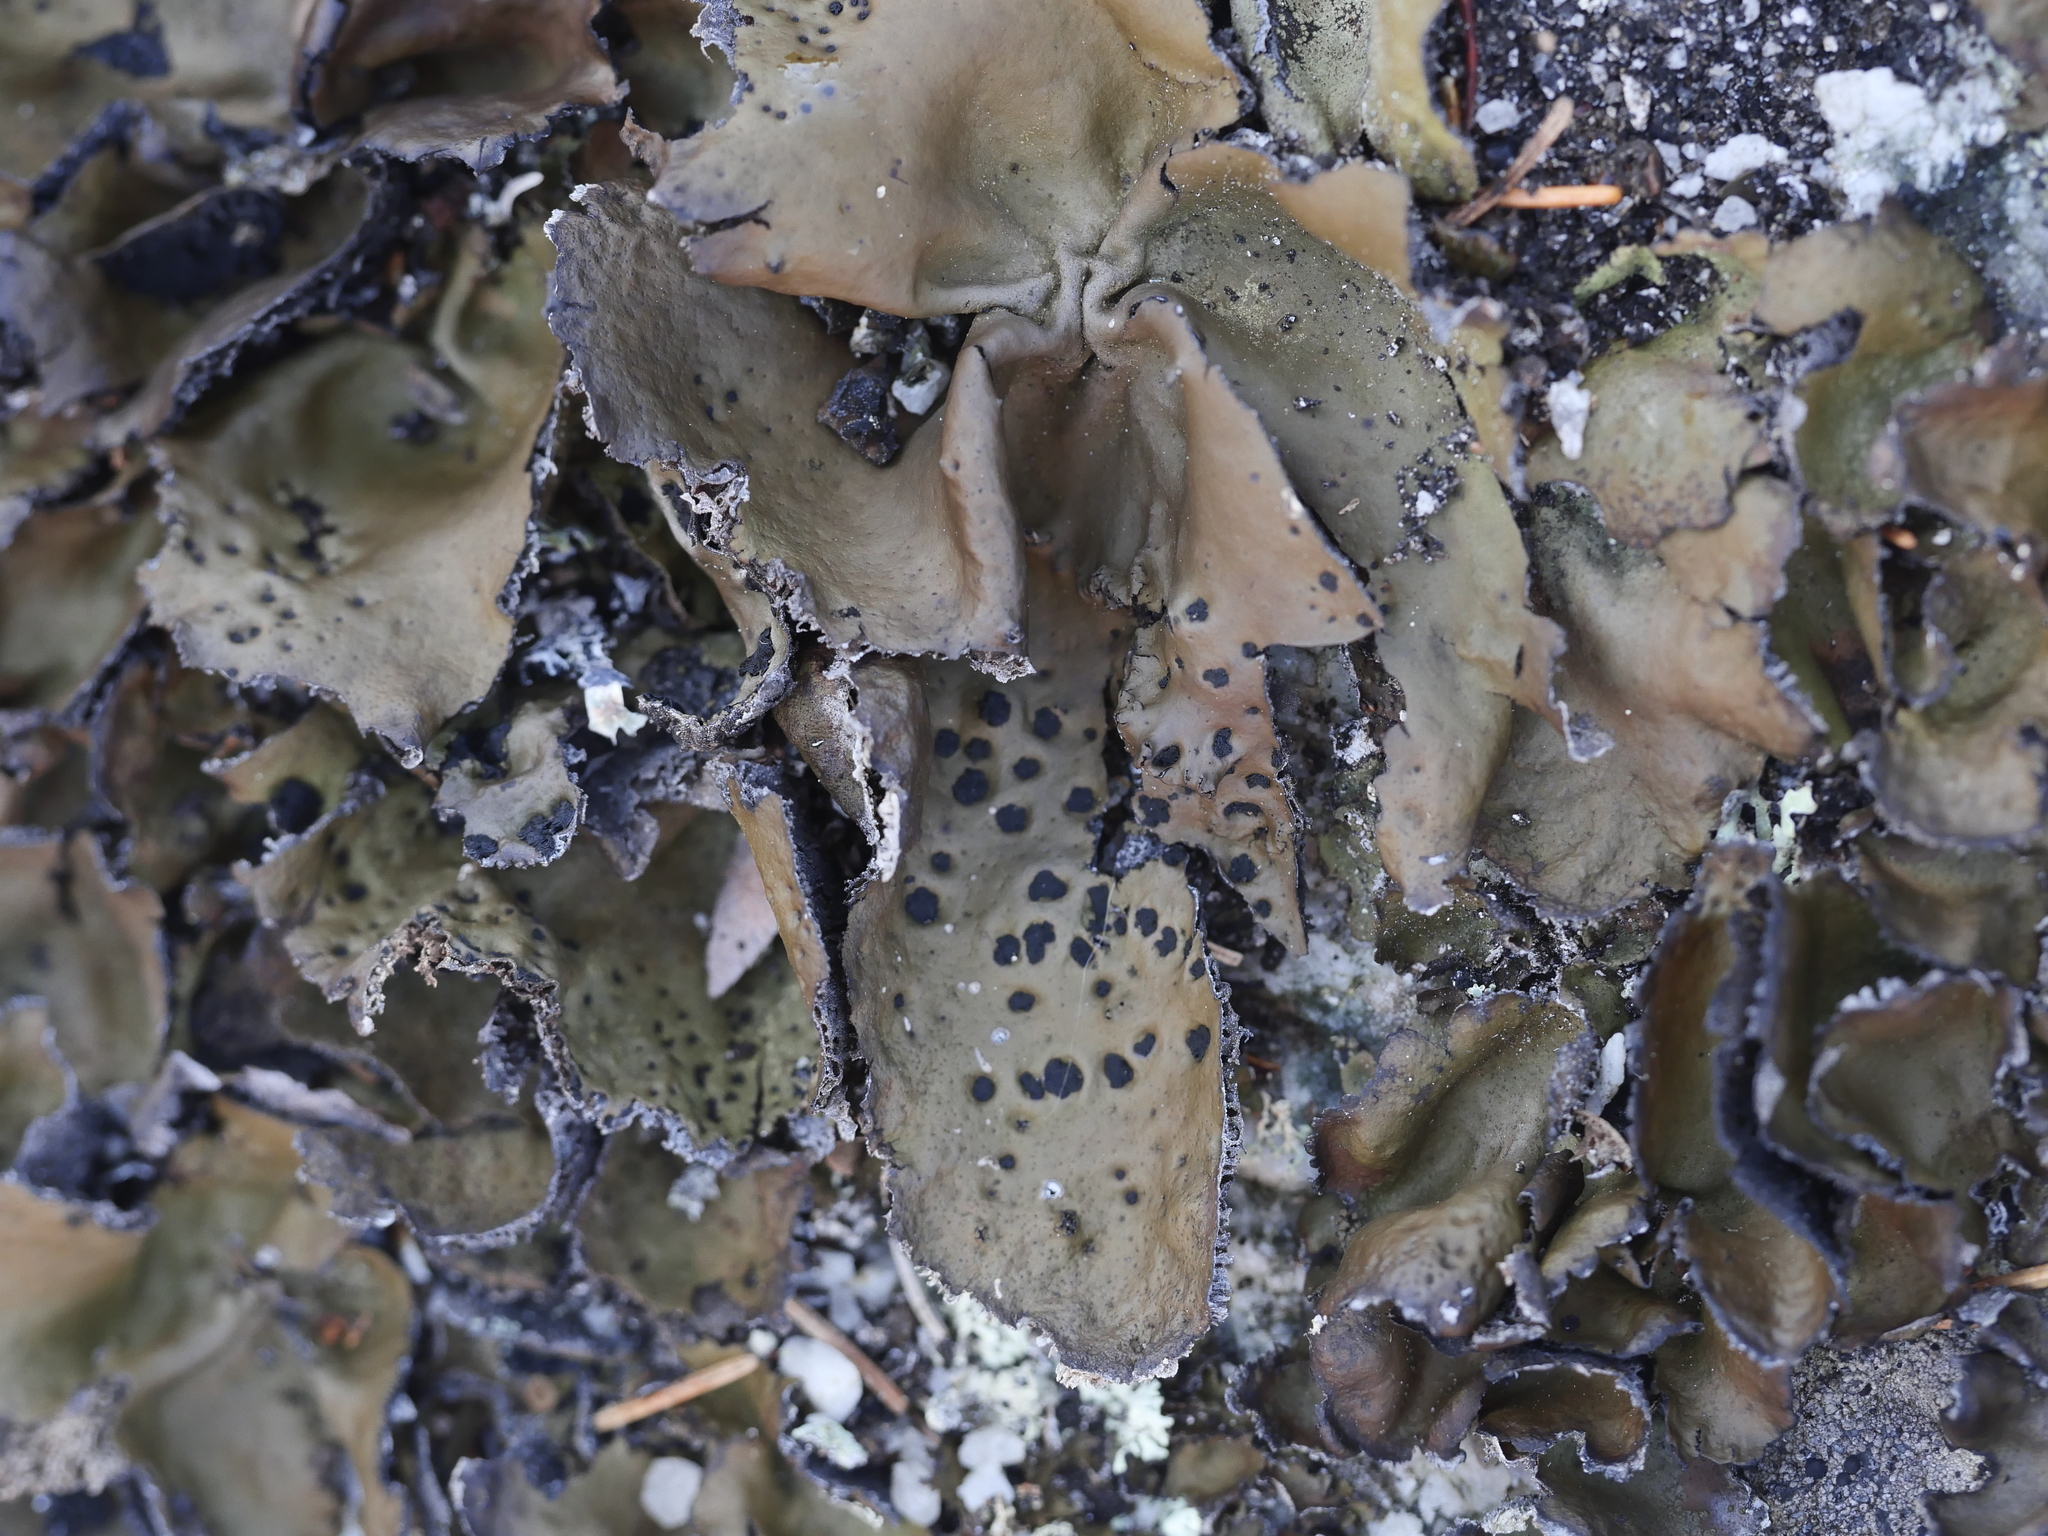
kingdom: Fungi
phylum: Ascomycota
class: Lecanoromycetes
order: Umbilicariales
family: Umbilicariaceae
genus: Umbilicaria
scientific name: Umbilicaria muhlenbergii
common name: Lesser rocktripe
